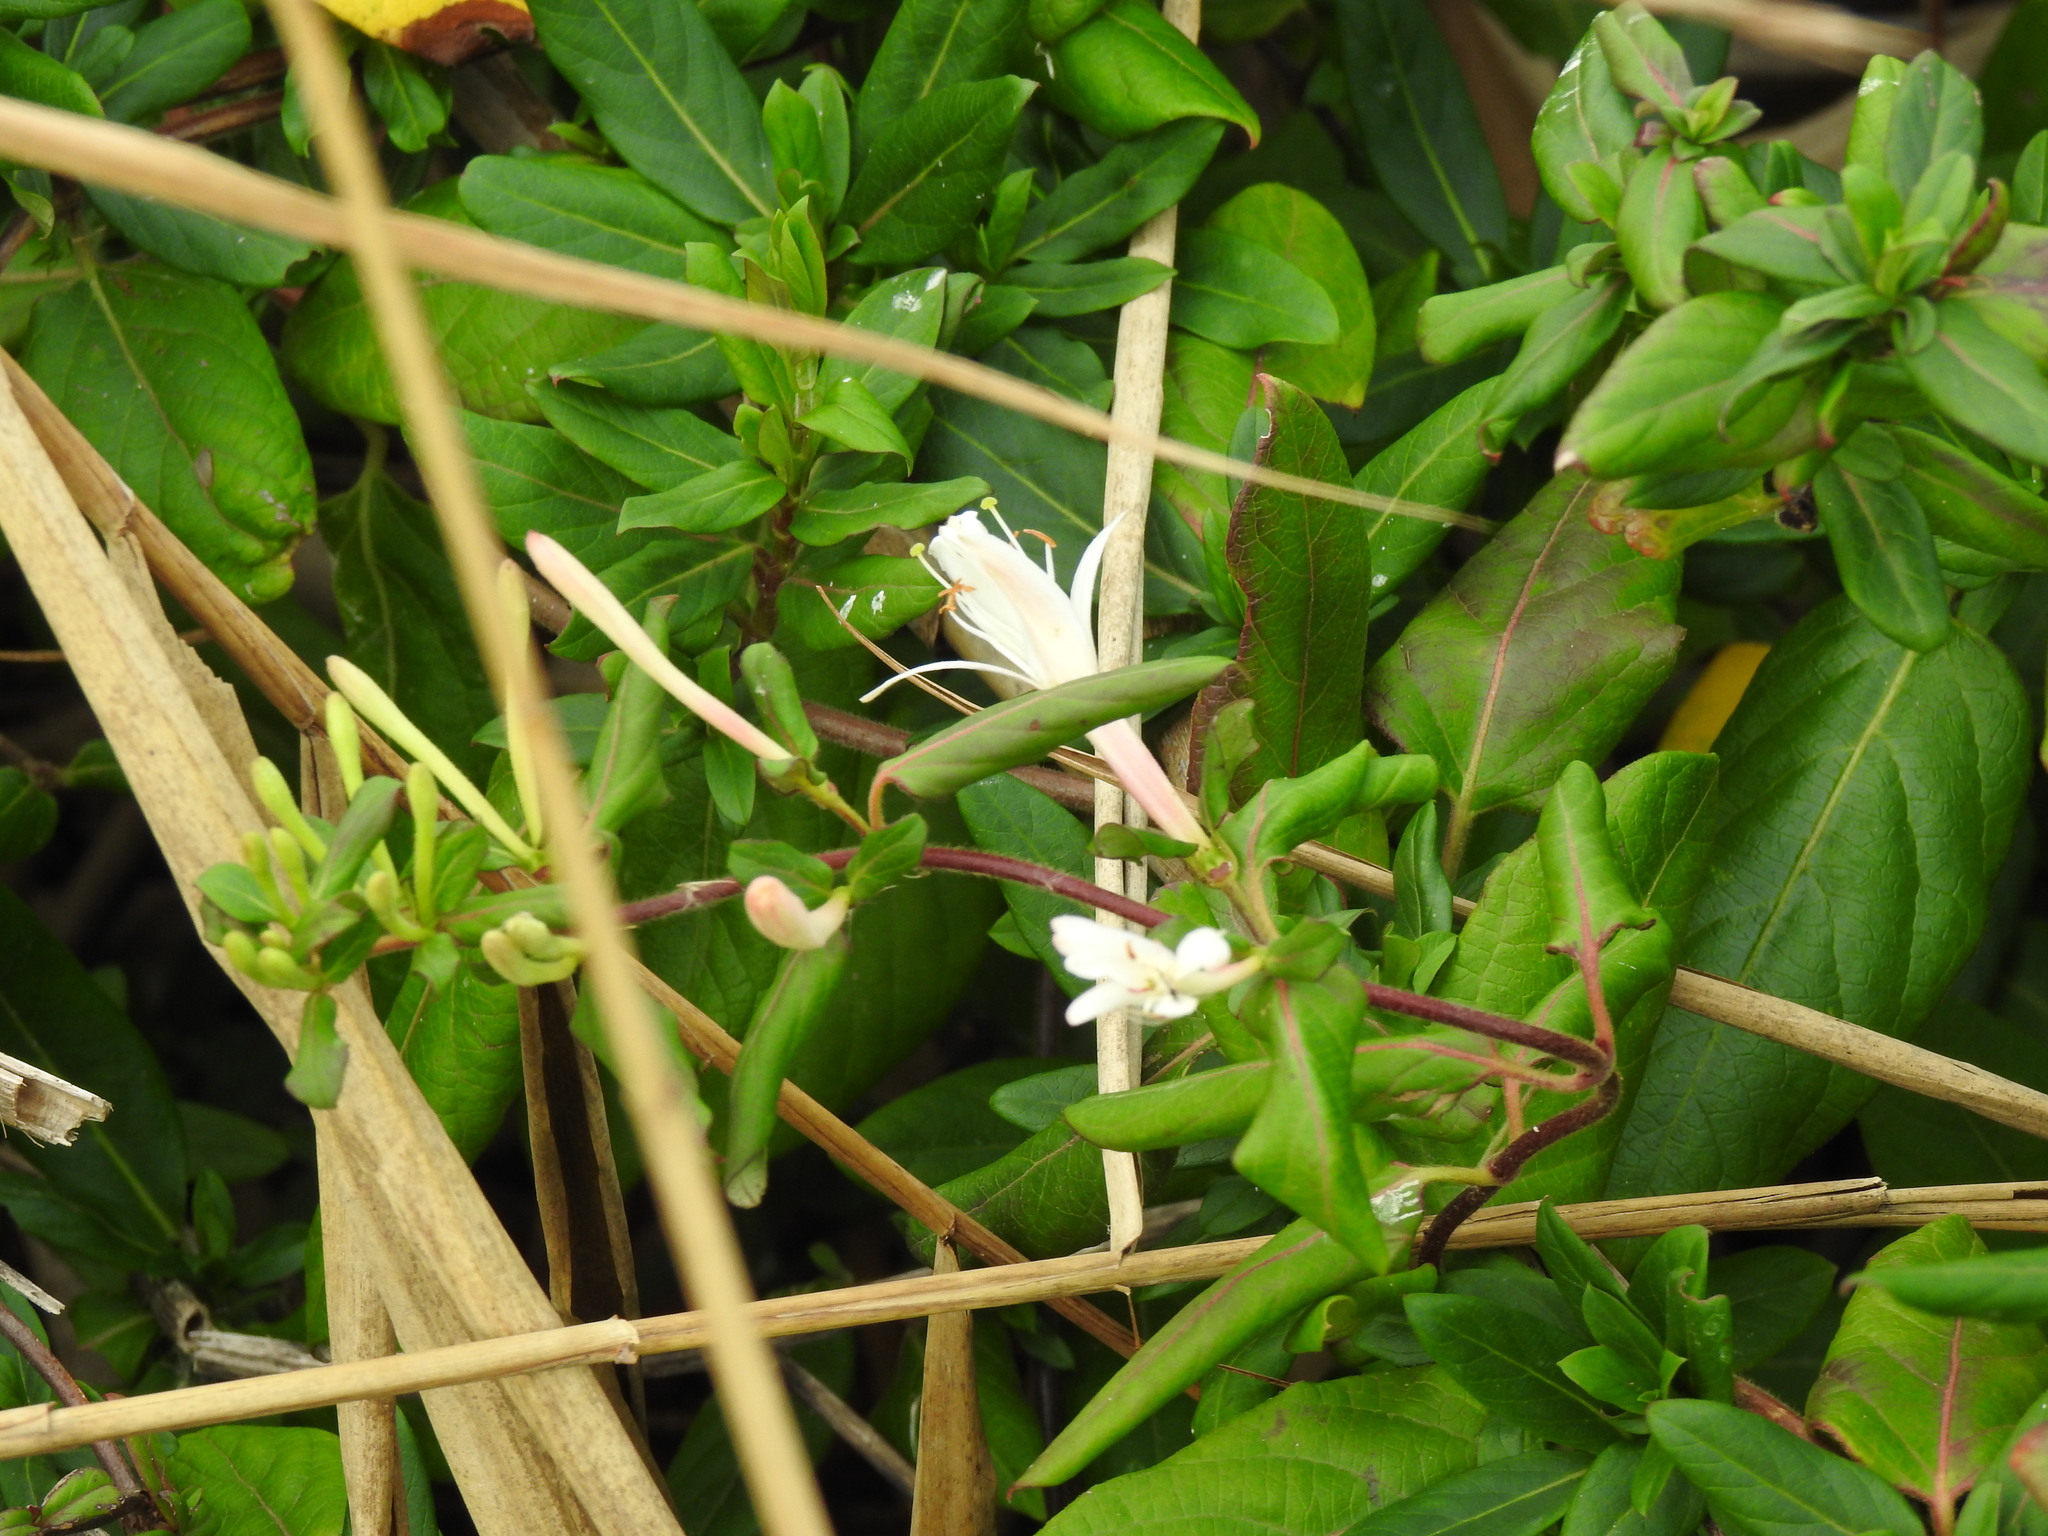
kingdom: Plantae
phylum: Tracheophyta
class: Magnoliopsida
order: Dipsacales
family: Caprifoliaceae
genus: Lonicera
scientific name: Lonicera japonica
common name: Japanese honeysuckle
